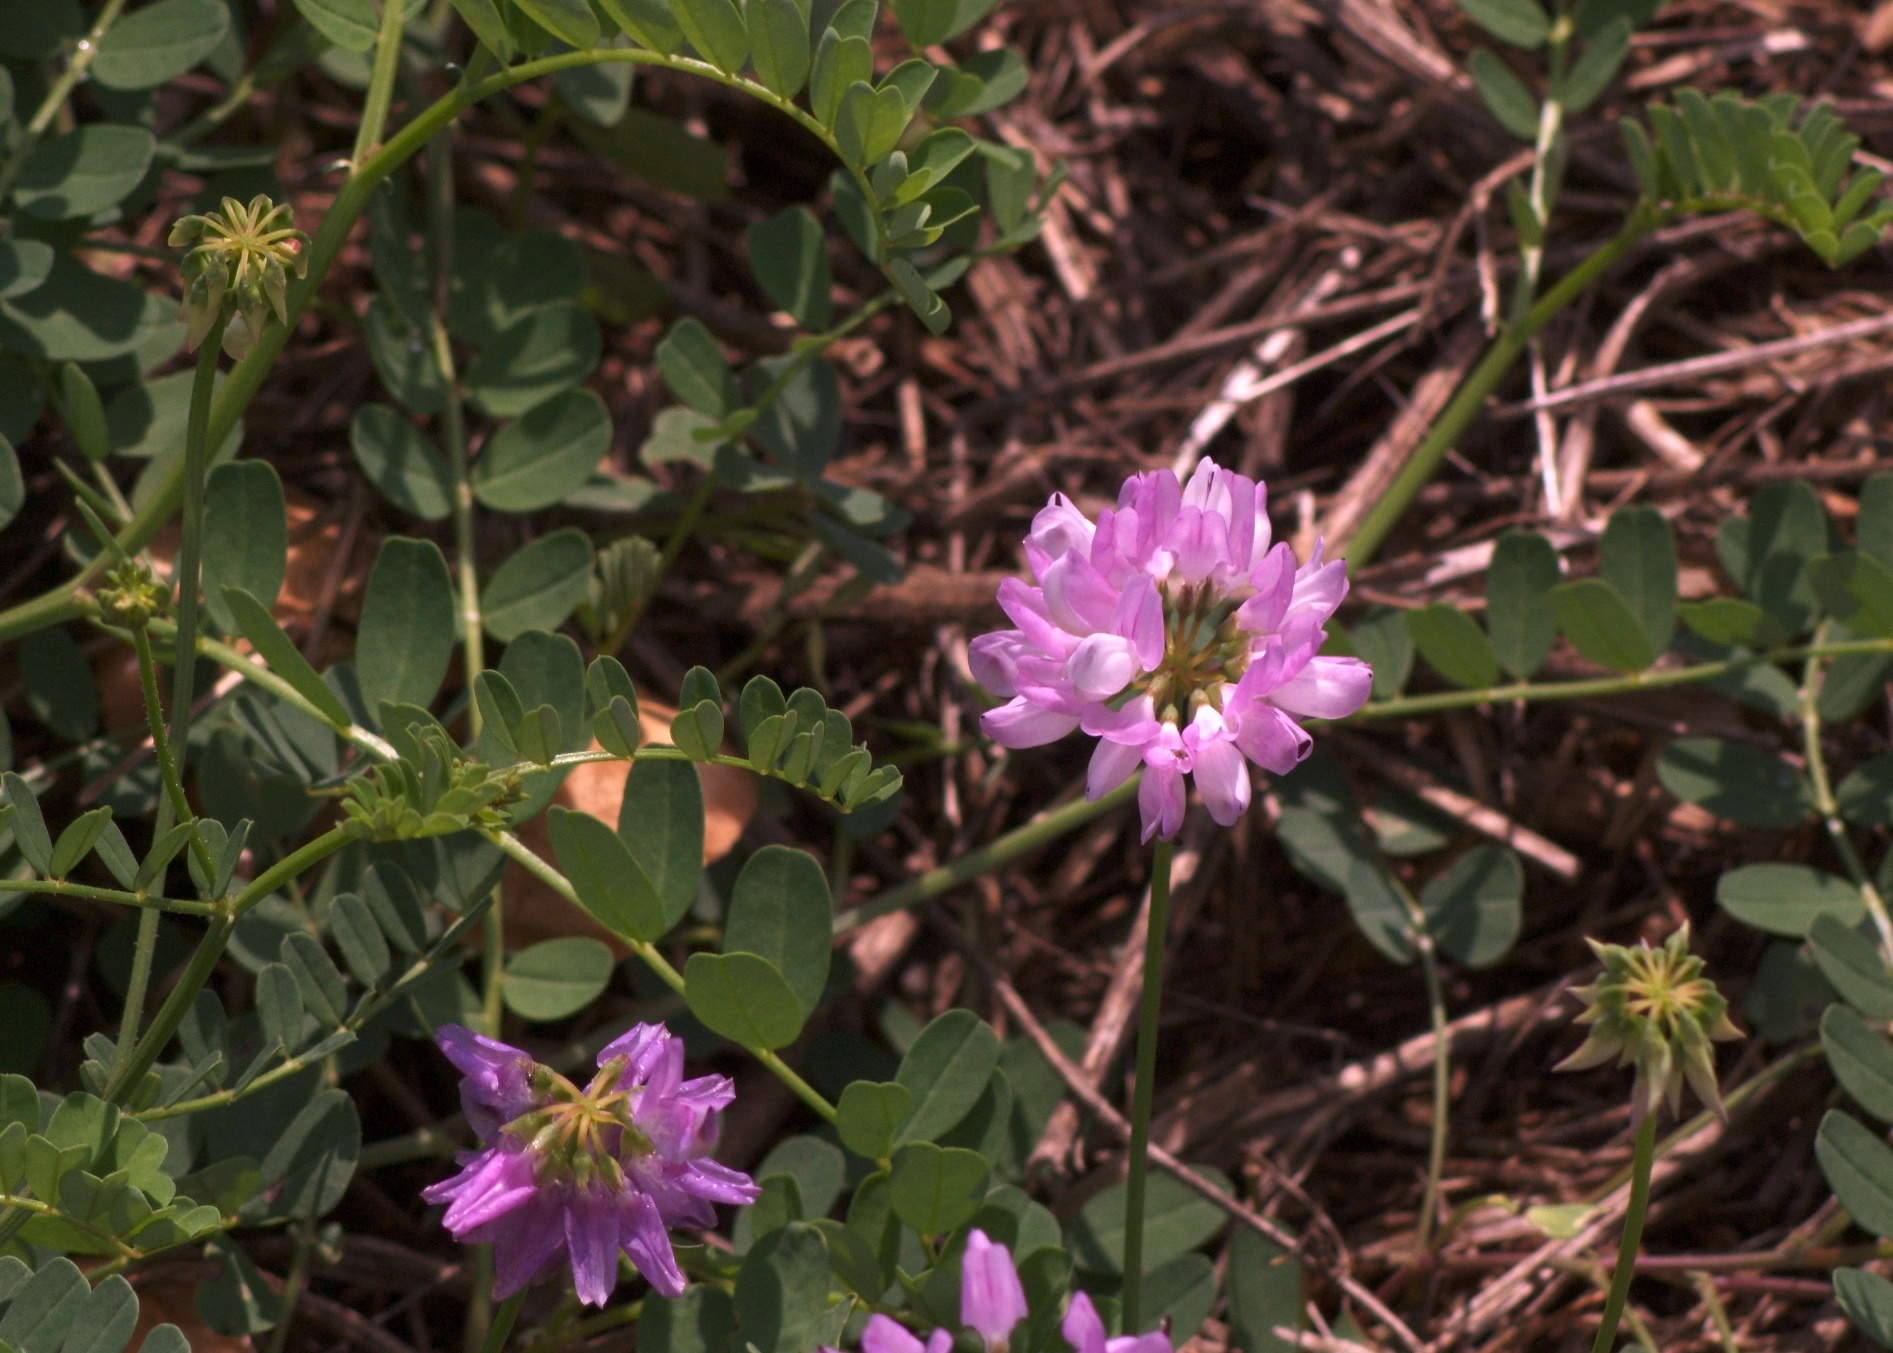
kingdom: Plantae
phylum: Tracheophyta
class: Magnoliopsida
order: Fabales
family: Fabaceae
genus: Coronilla
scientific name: Coronilla varia
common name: Crownvetch
